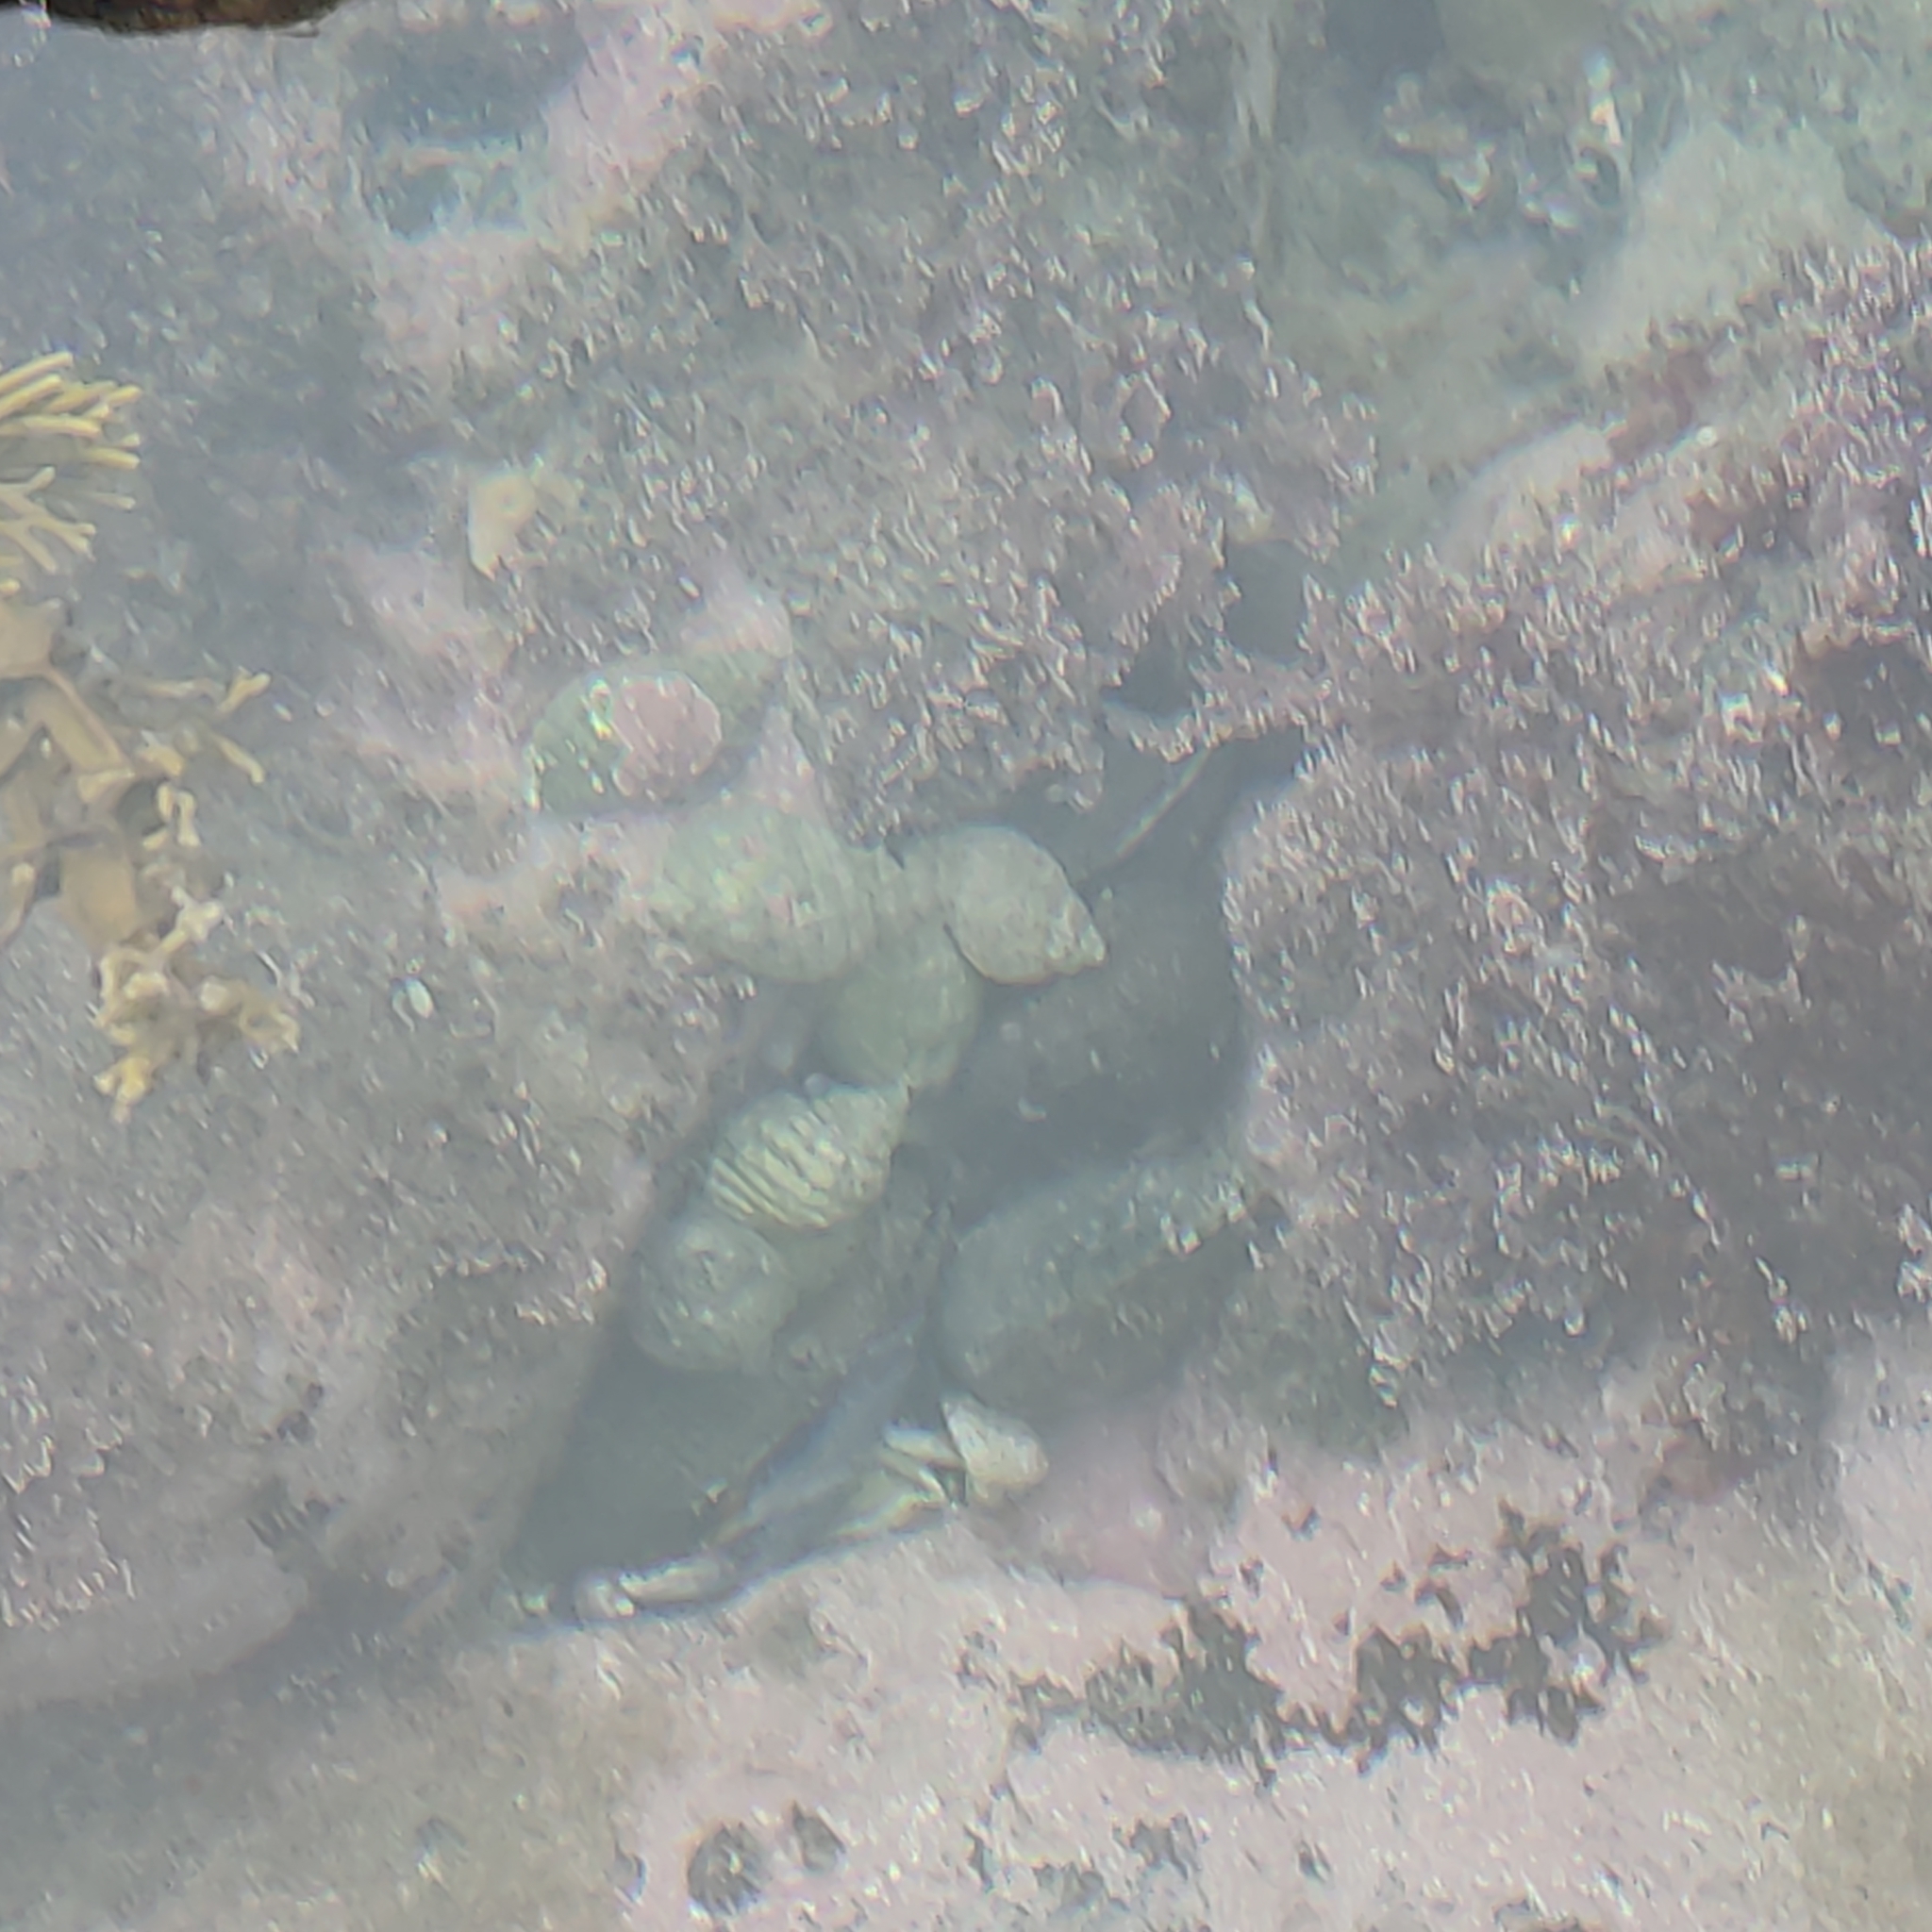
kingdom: Animalia
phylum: Mollusca
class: Gastropoda
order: Neogastropoda
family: Muricidae
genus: Haustrum
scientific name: Haustrum lacunosum
